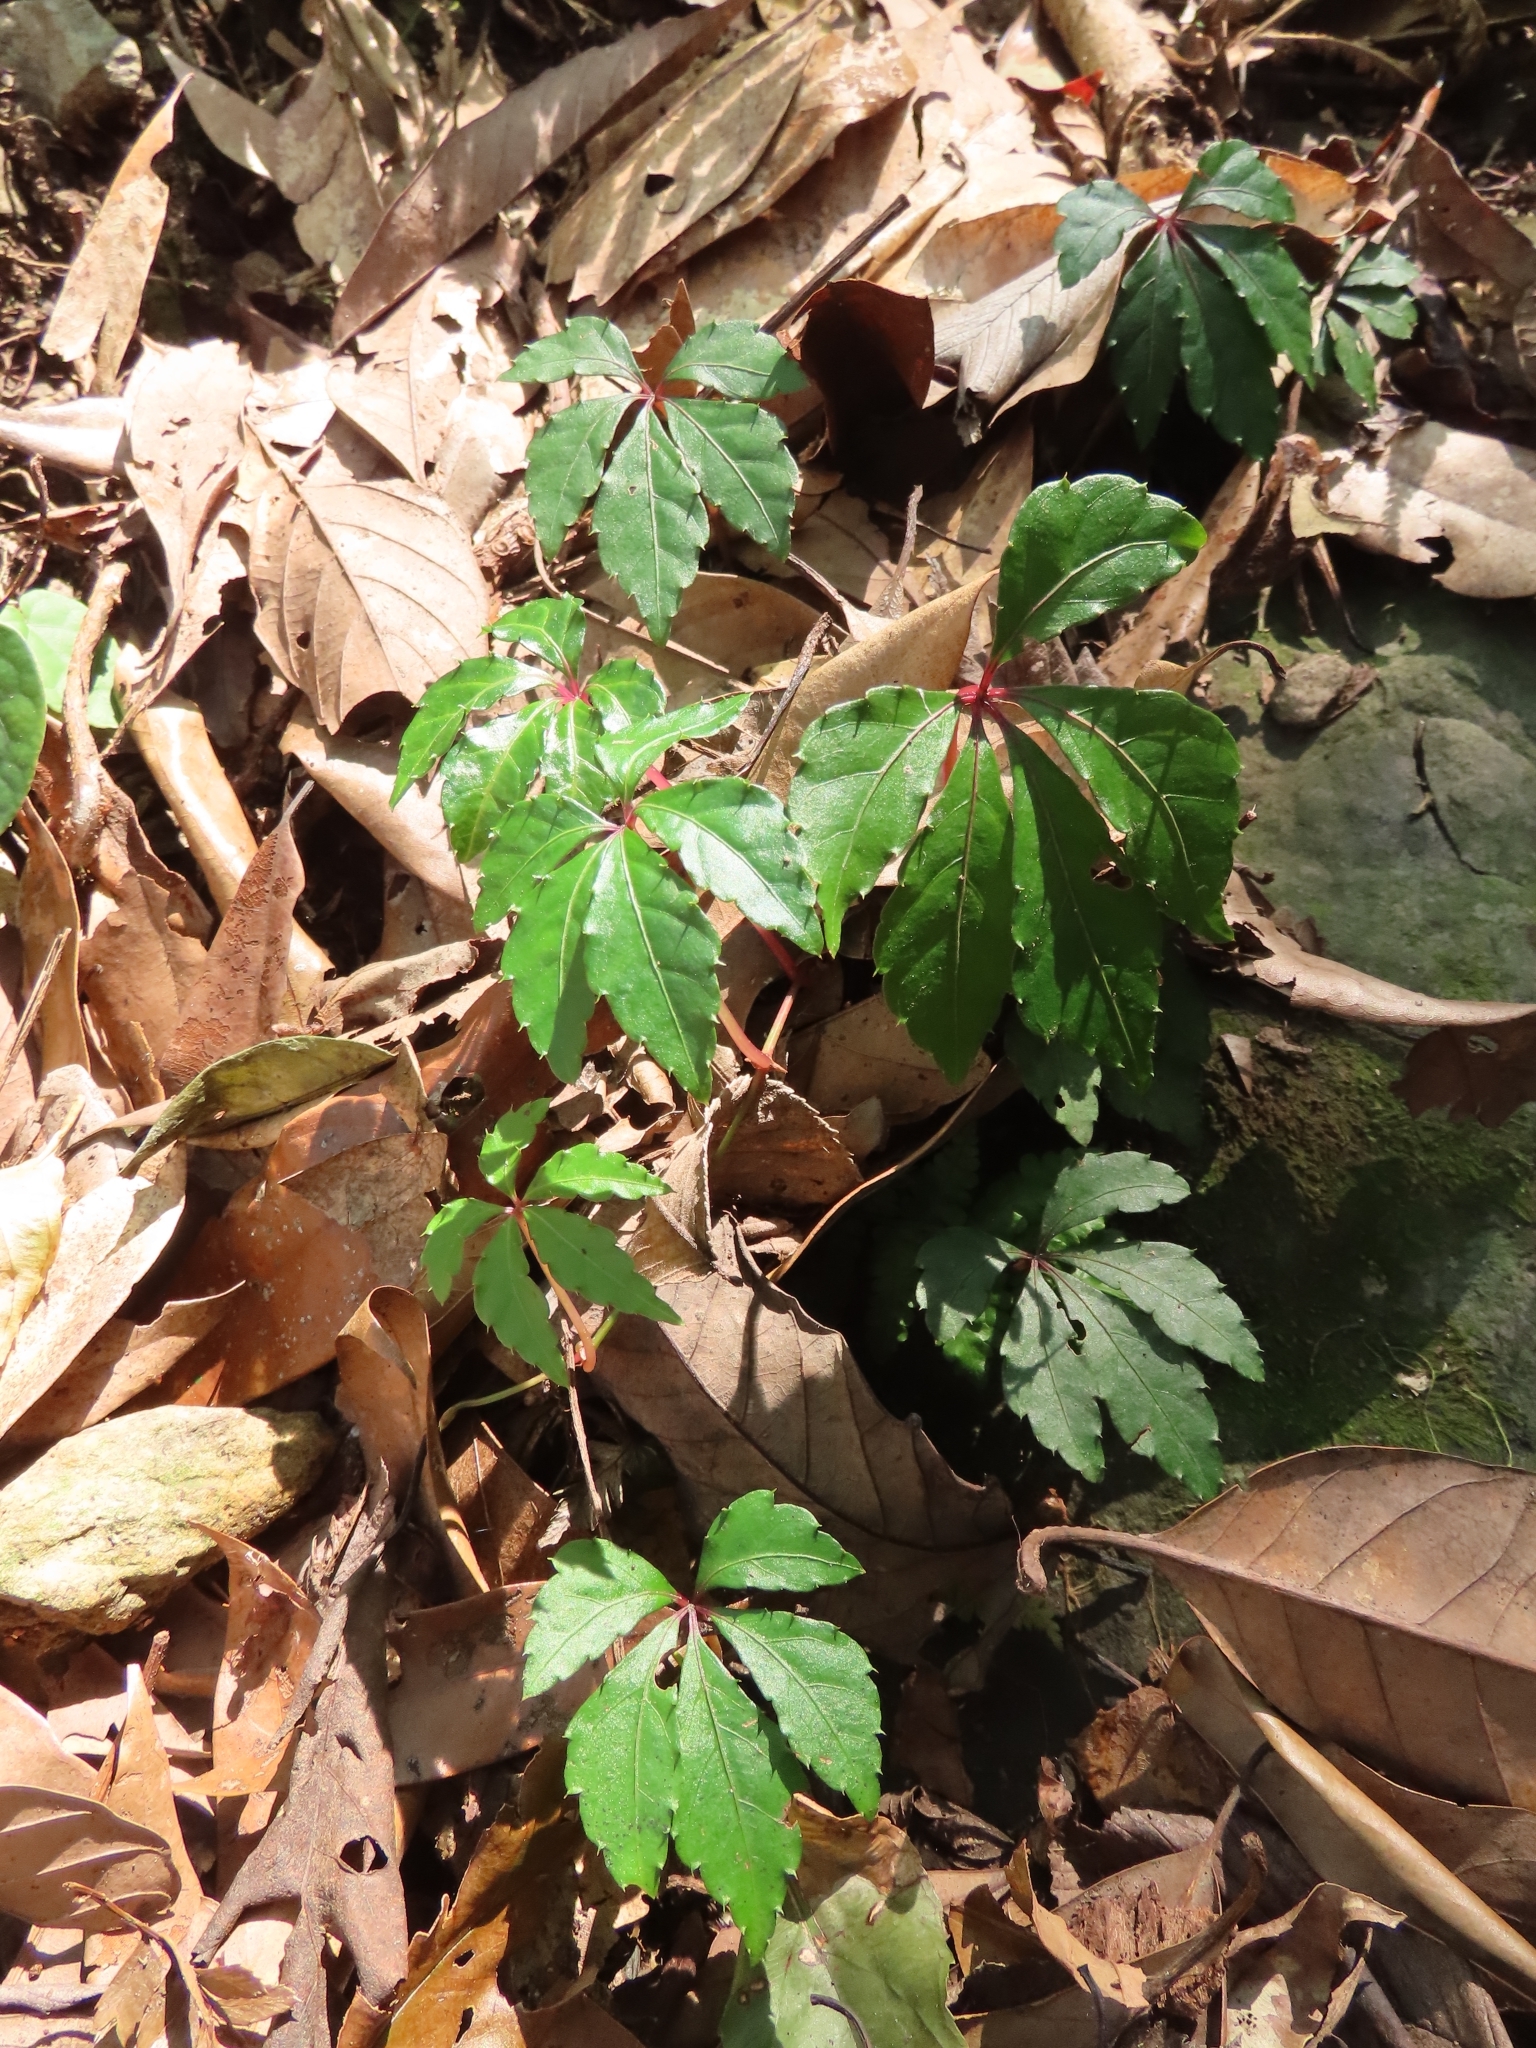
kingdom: Plantae
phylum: Tracheophyta
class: Magnoliopsida
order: Vitales
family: Vitaceae
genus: Tetrastigma
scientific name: Tetrastigma obtectum
